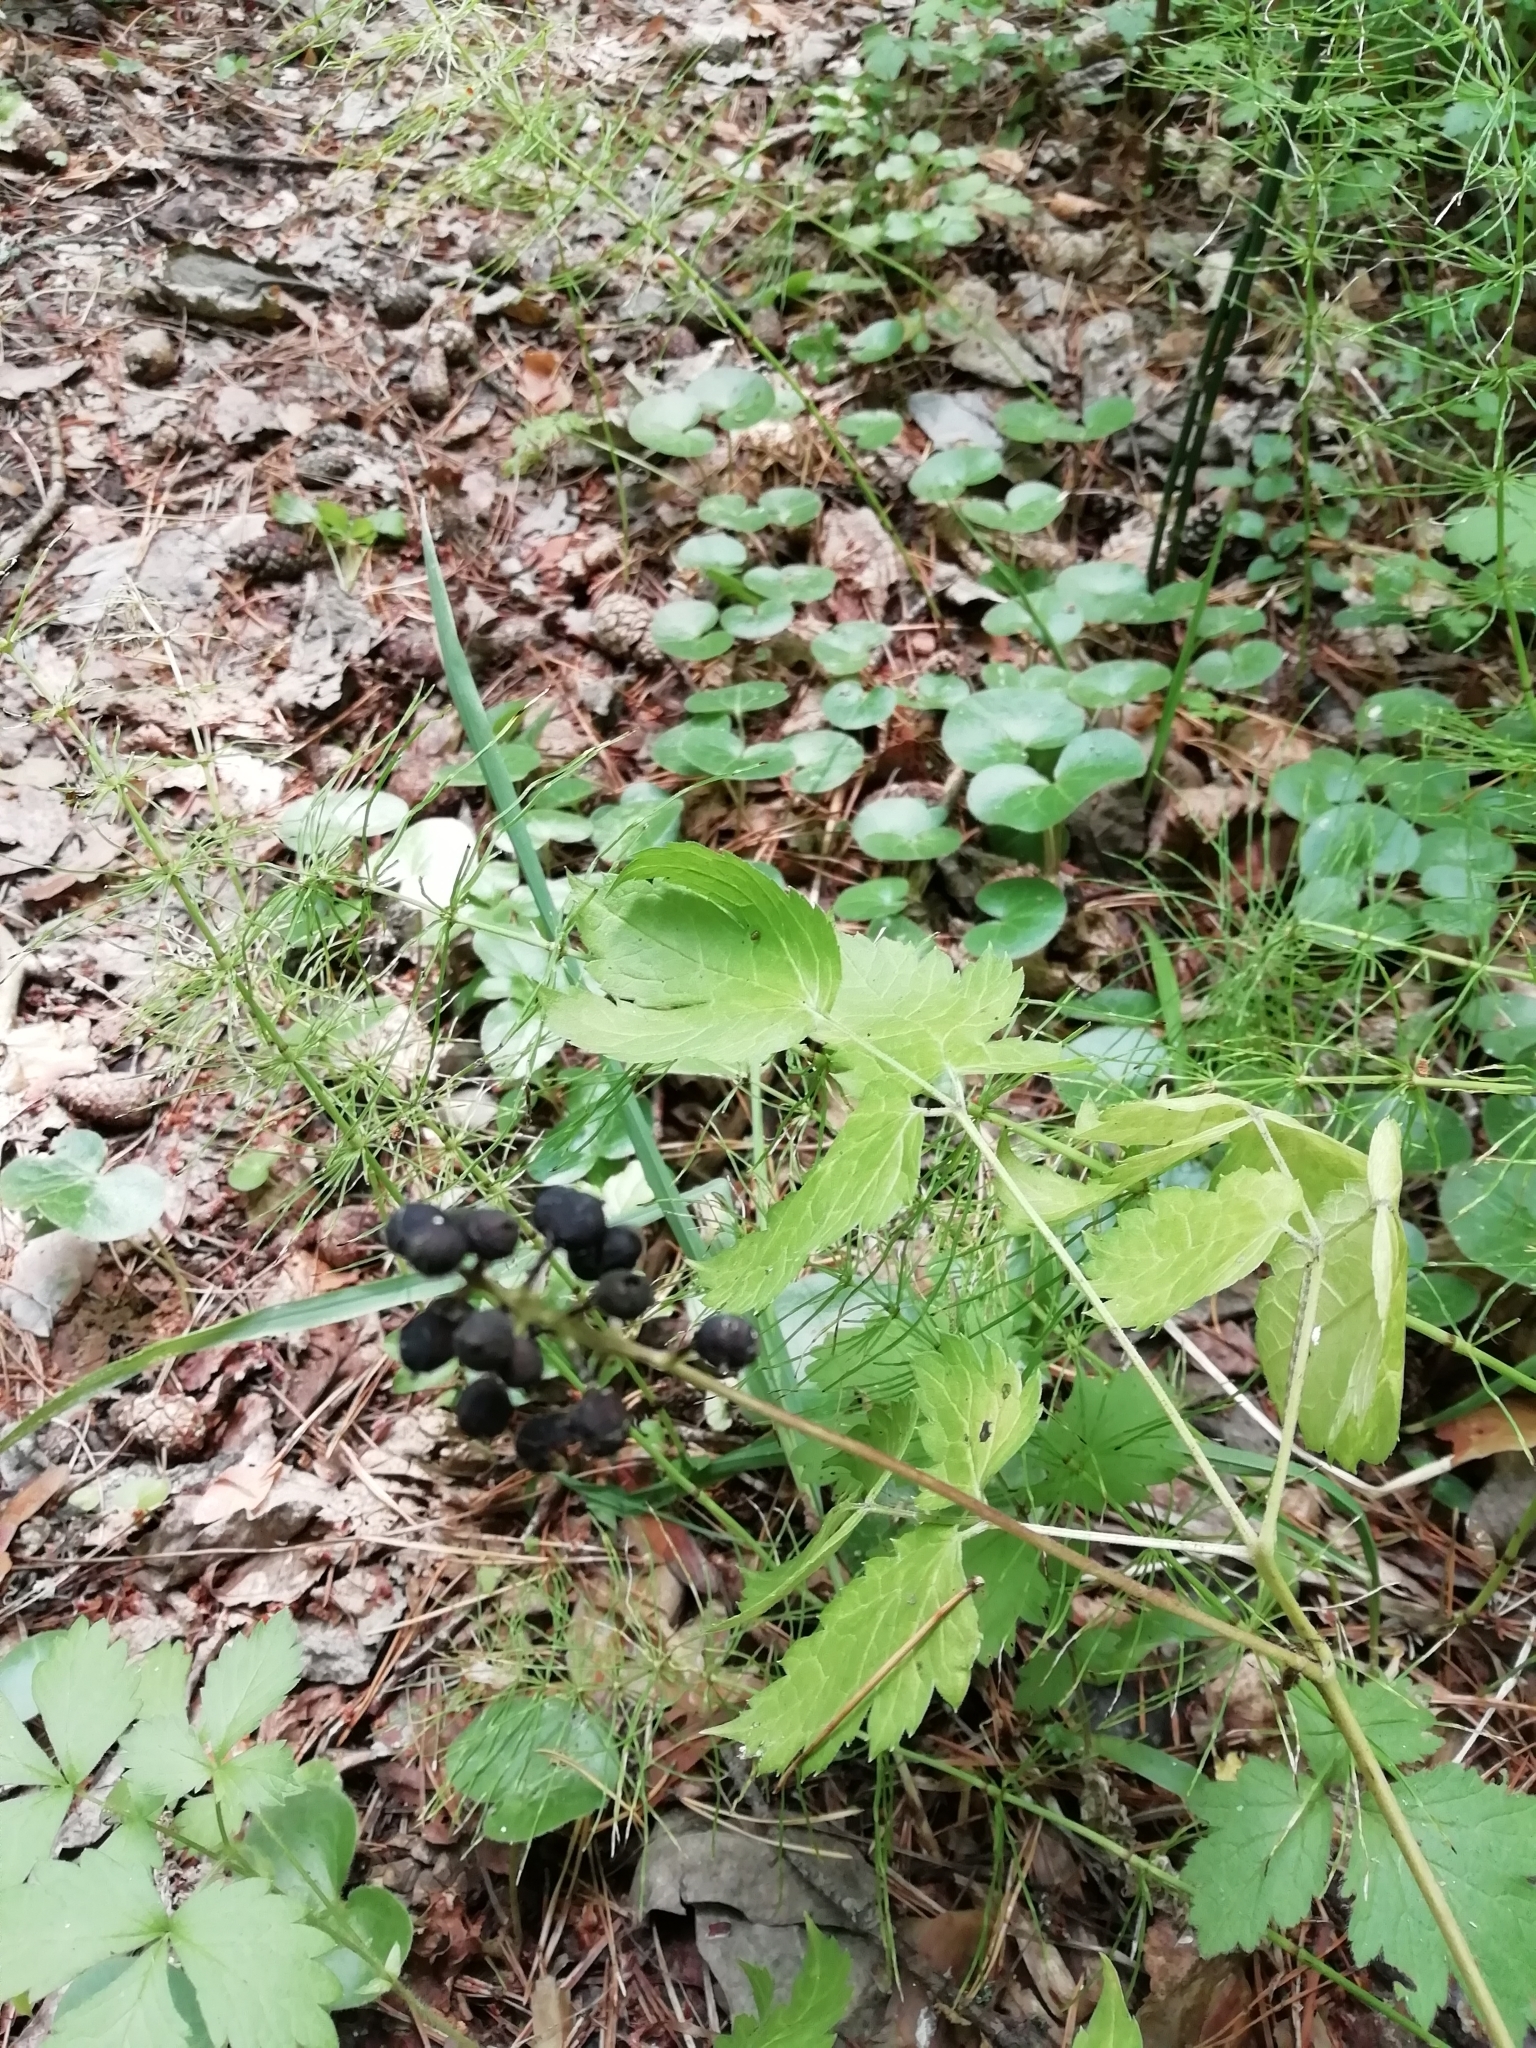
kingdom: Plantae
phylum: Tracheophyta
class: Magnoliopsida
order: Ranunculales
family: Ranunculaceae
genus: Actaea
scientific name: Actaea spicata
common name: Baneberry
